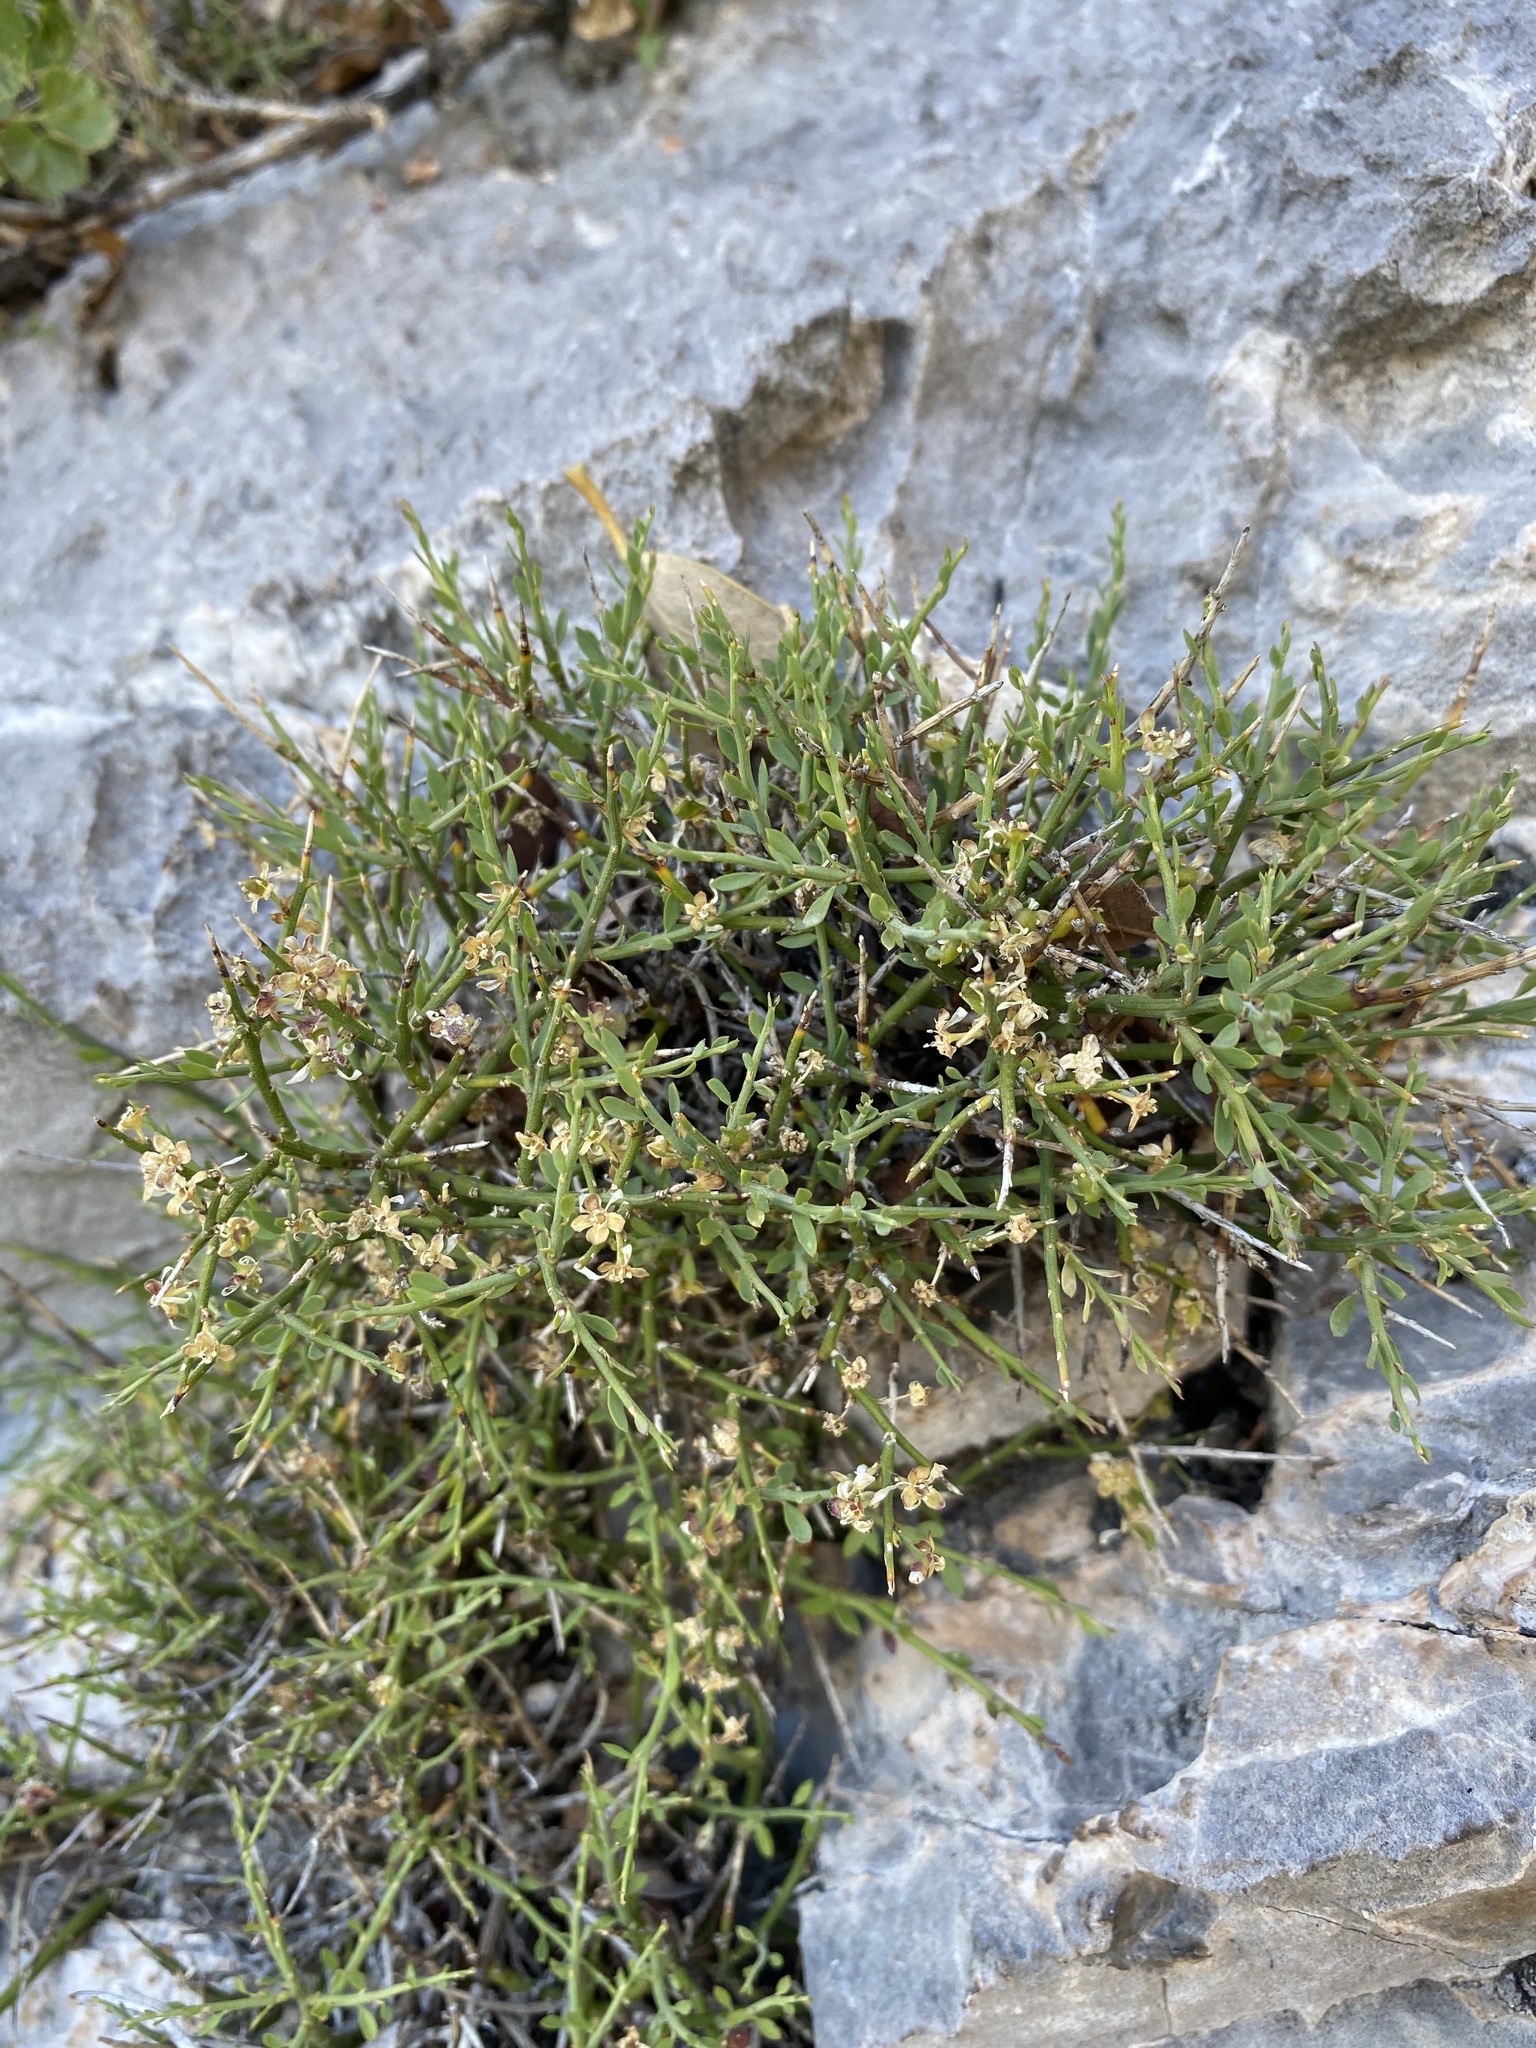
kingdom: Plantae
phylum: Tracheophyta
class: Magnoliopsida
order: Crossosomatales
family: Crossosomataceae
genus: Glossopetalon
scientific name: Glossopetalon spinescens
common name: Spring greasebush
